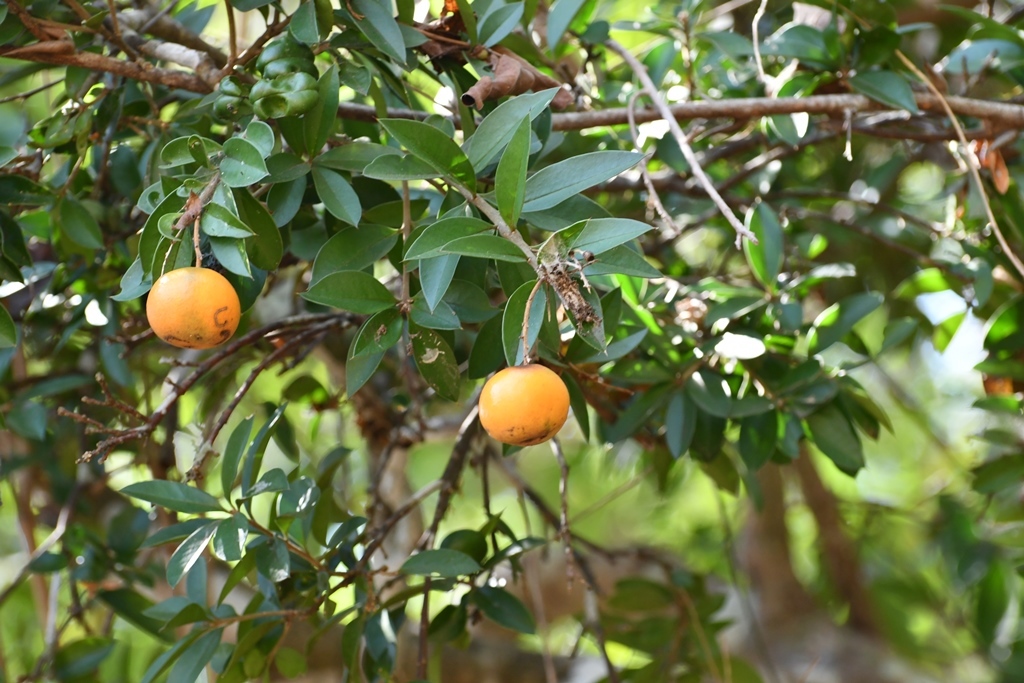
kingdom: Plantae
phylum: Tracheophyta
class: Magnoliopsida
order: Ericales
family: Primulaceae
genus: Bonellia
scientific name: Bonellia macrocarpa
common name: Primrose
